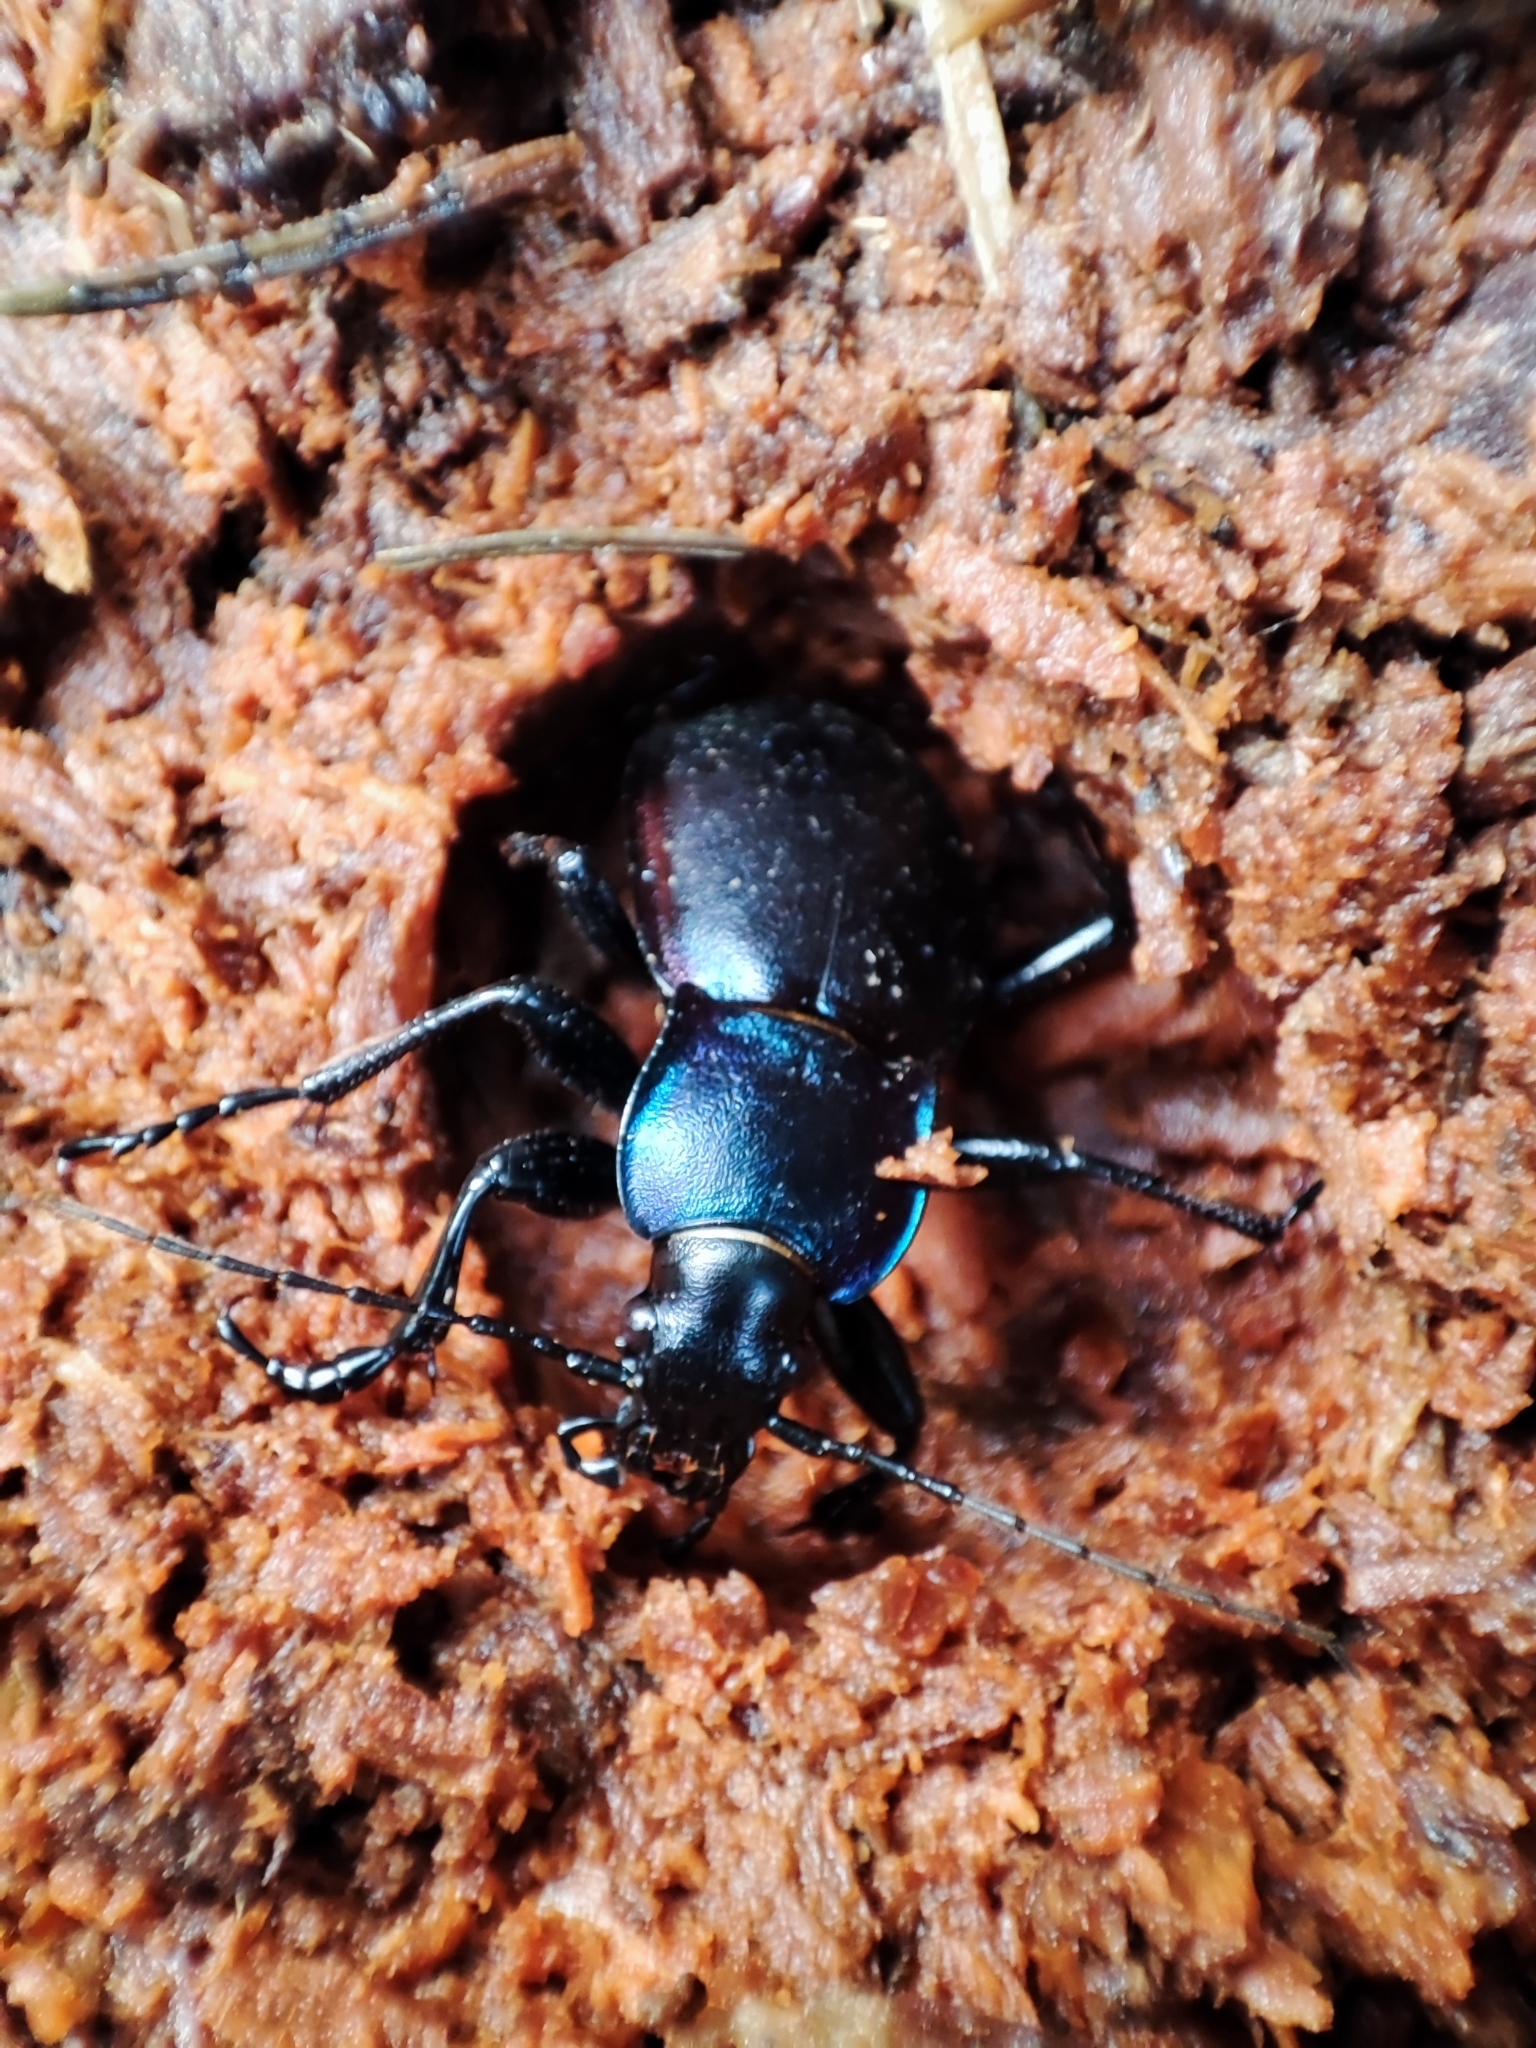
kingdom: Animalia
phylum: Arthropoda
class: Insecta
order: Coleoptera
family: Carabidae
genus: Carabus
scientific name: Carabus violaceus
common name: Violet ground beetle
